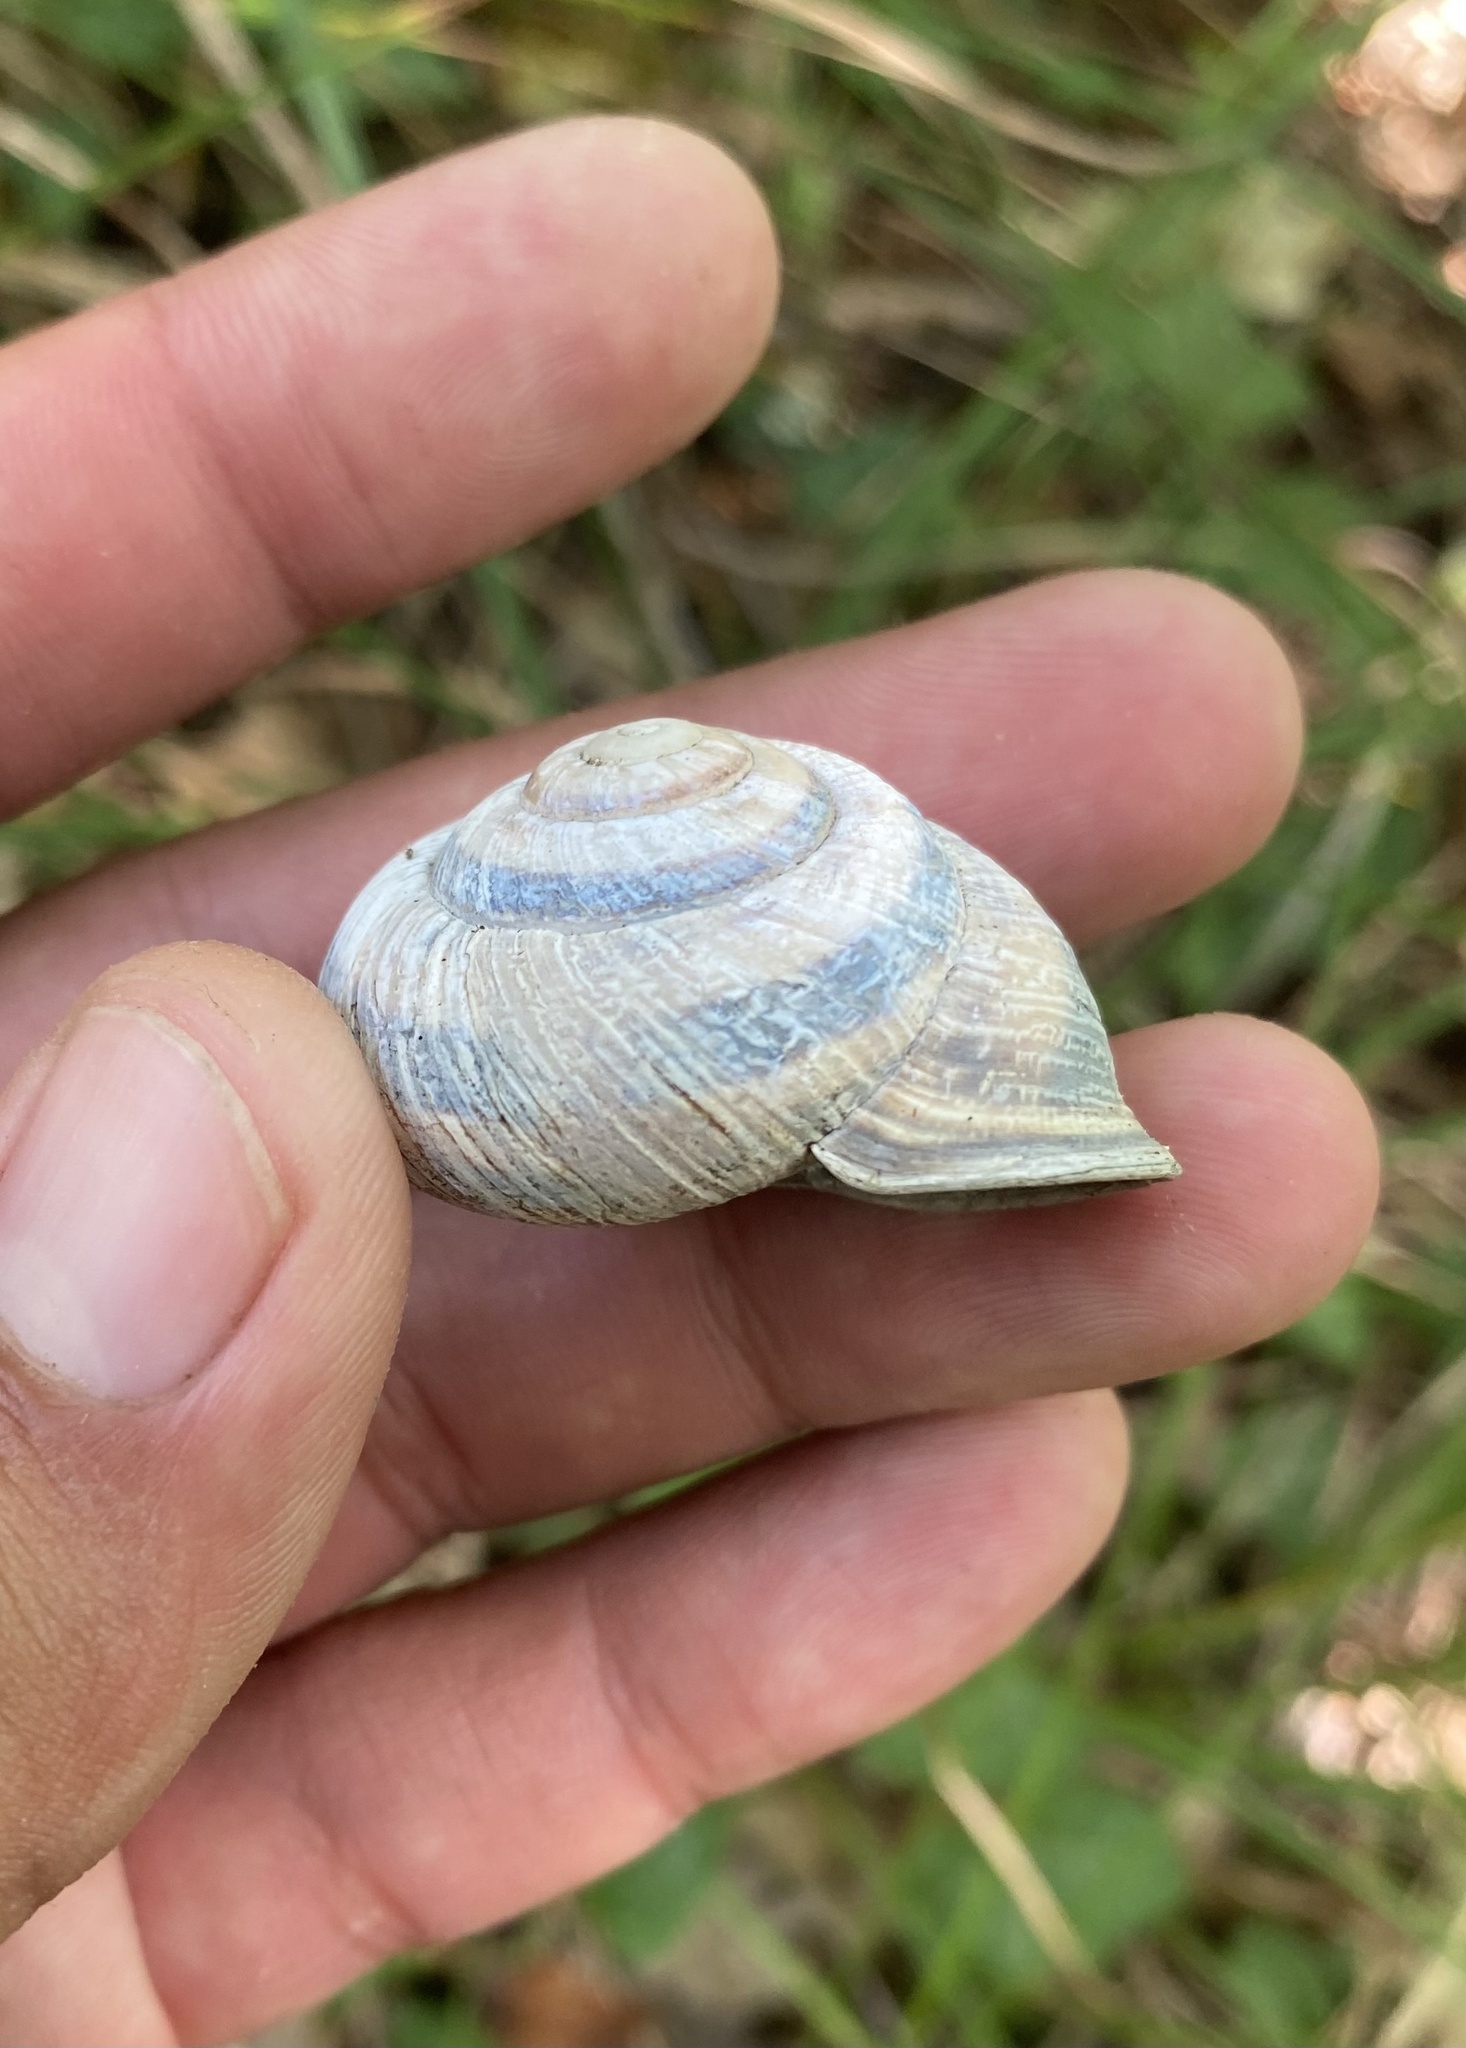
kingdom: Animalia
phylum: Mollusca
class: Gastropoda
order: Stylommatophora
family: Helicidae
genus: Caucasotachea
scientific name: Caucasotachea atrolabiata
